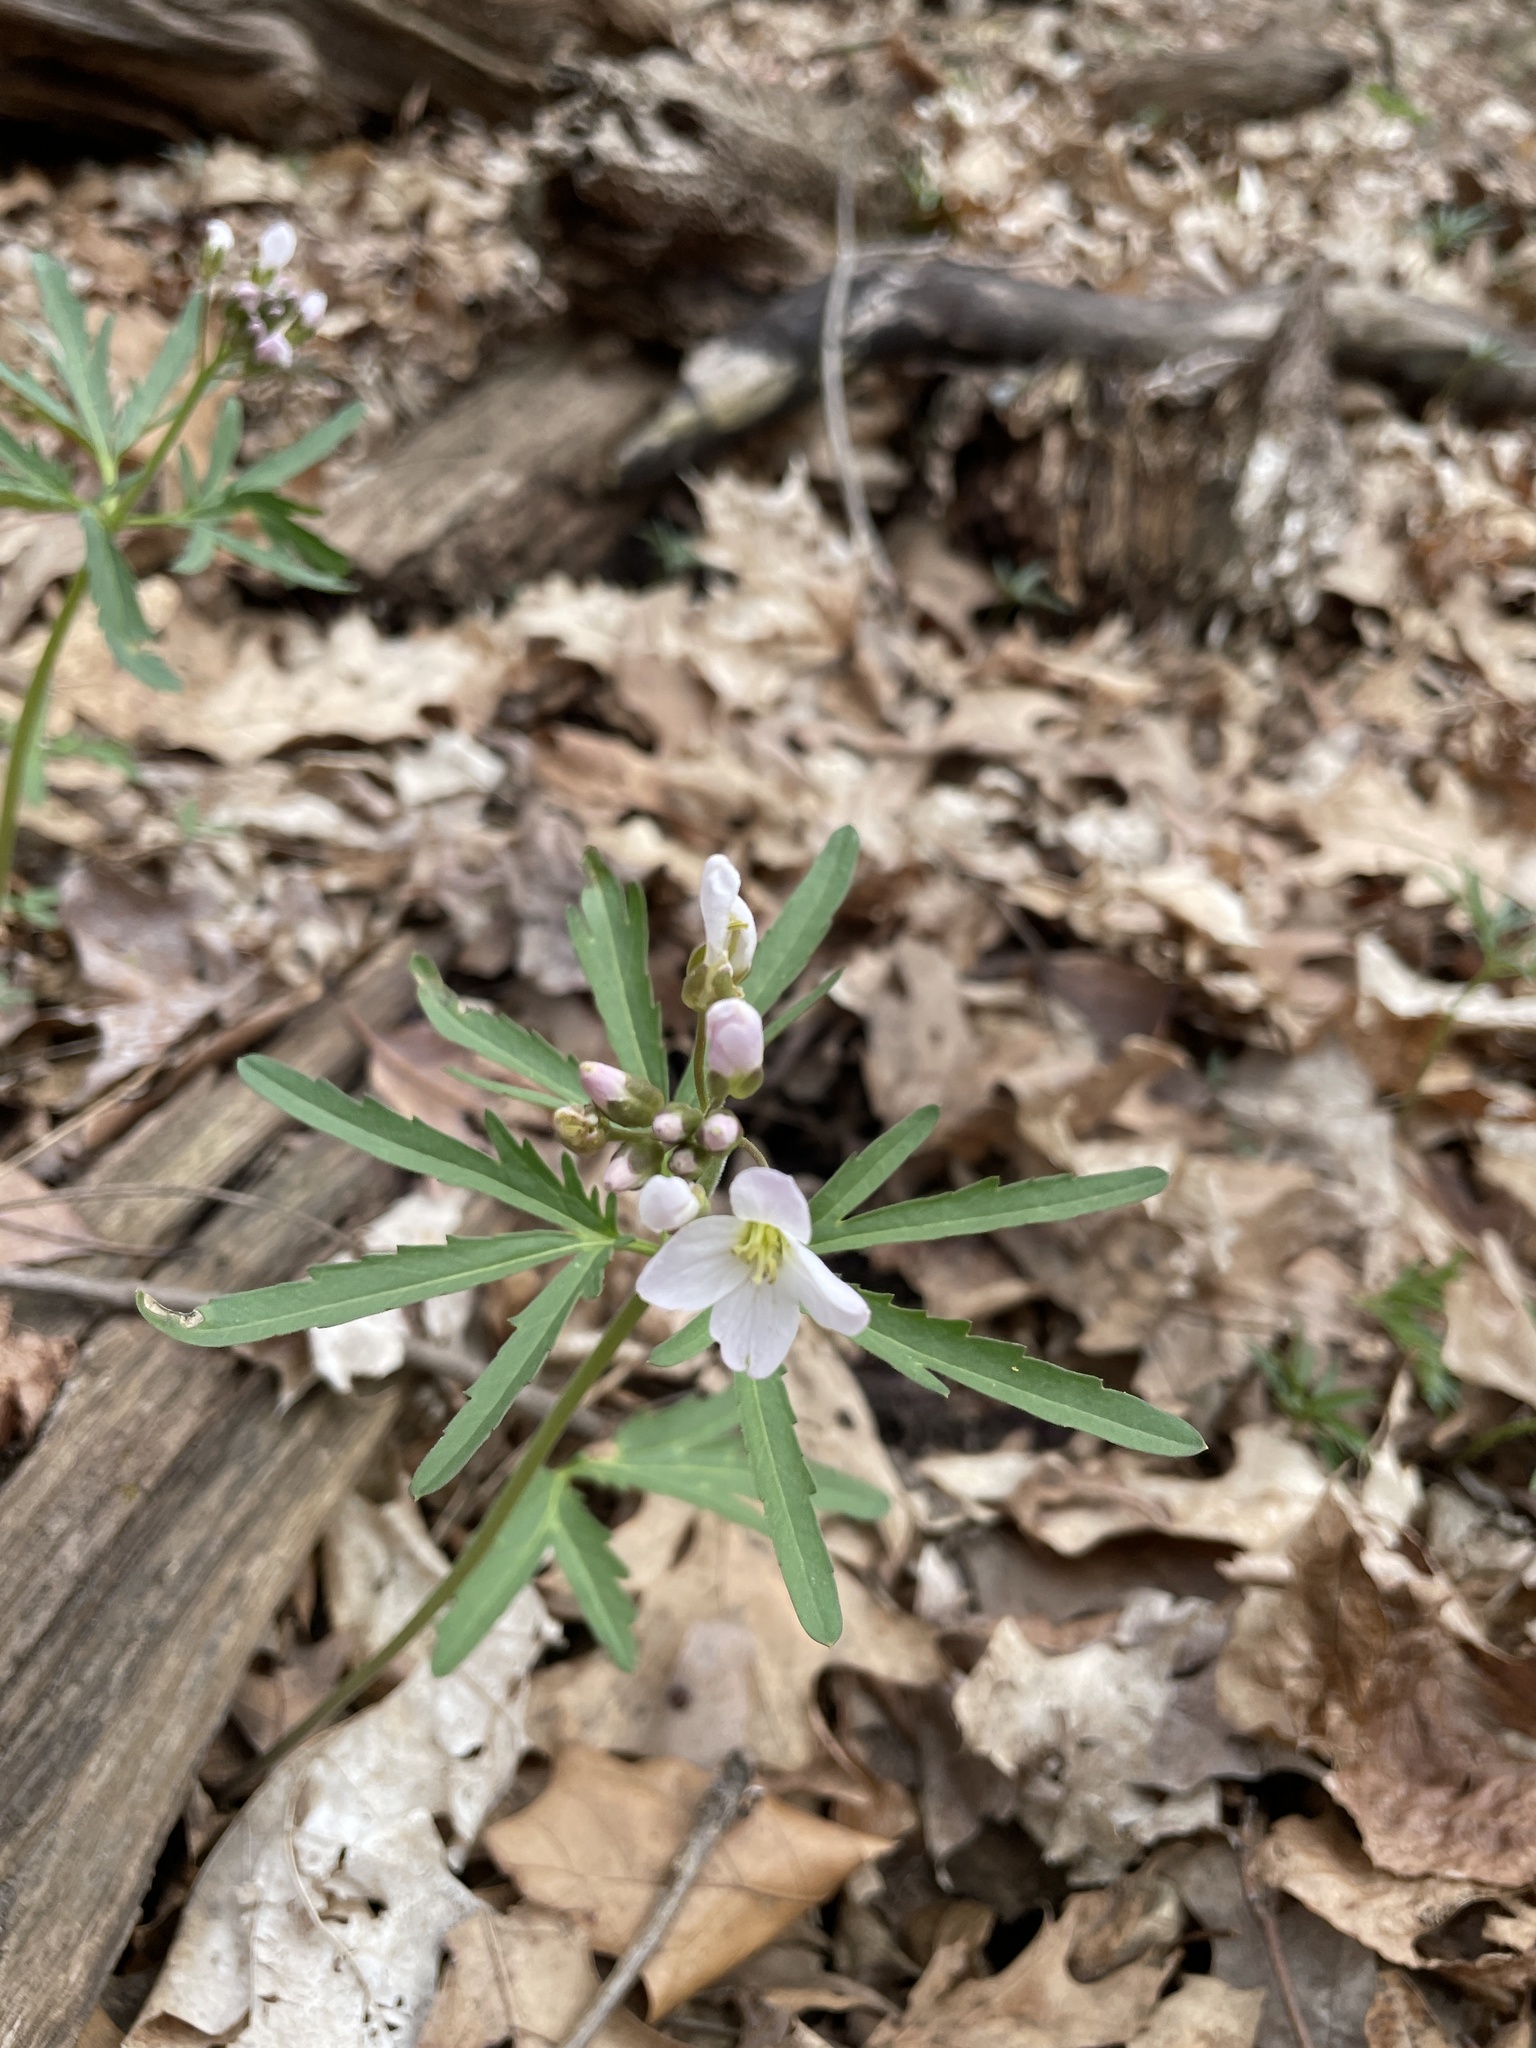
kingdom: Plantae
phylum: Tracheophyta
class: Magnoliopsida
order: Brassicales
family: Brassicaceae
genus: Cardamine
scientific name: Cardamine concatenata
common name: Cut-leaf toothcup
